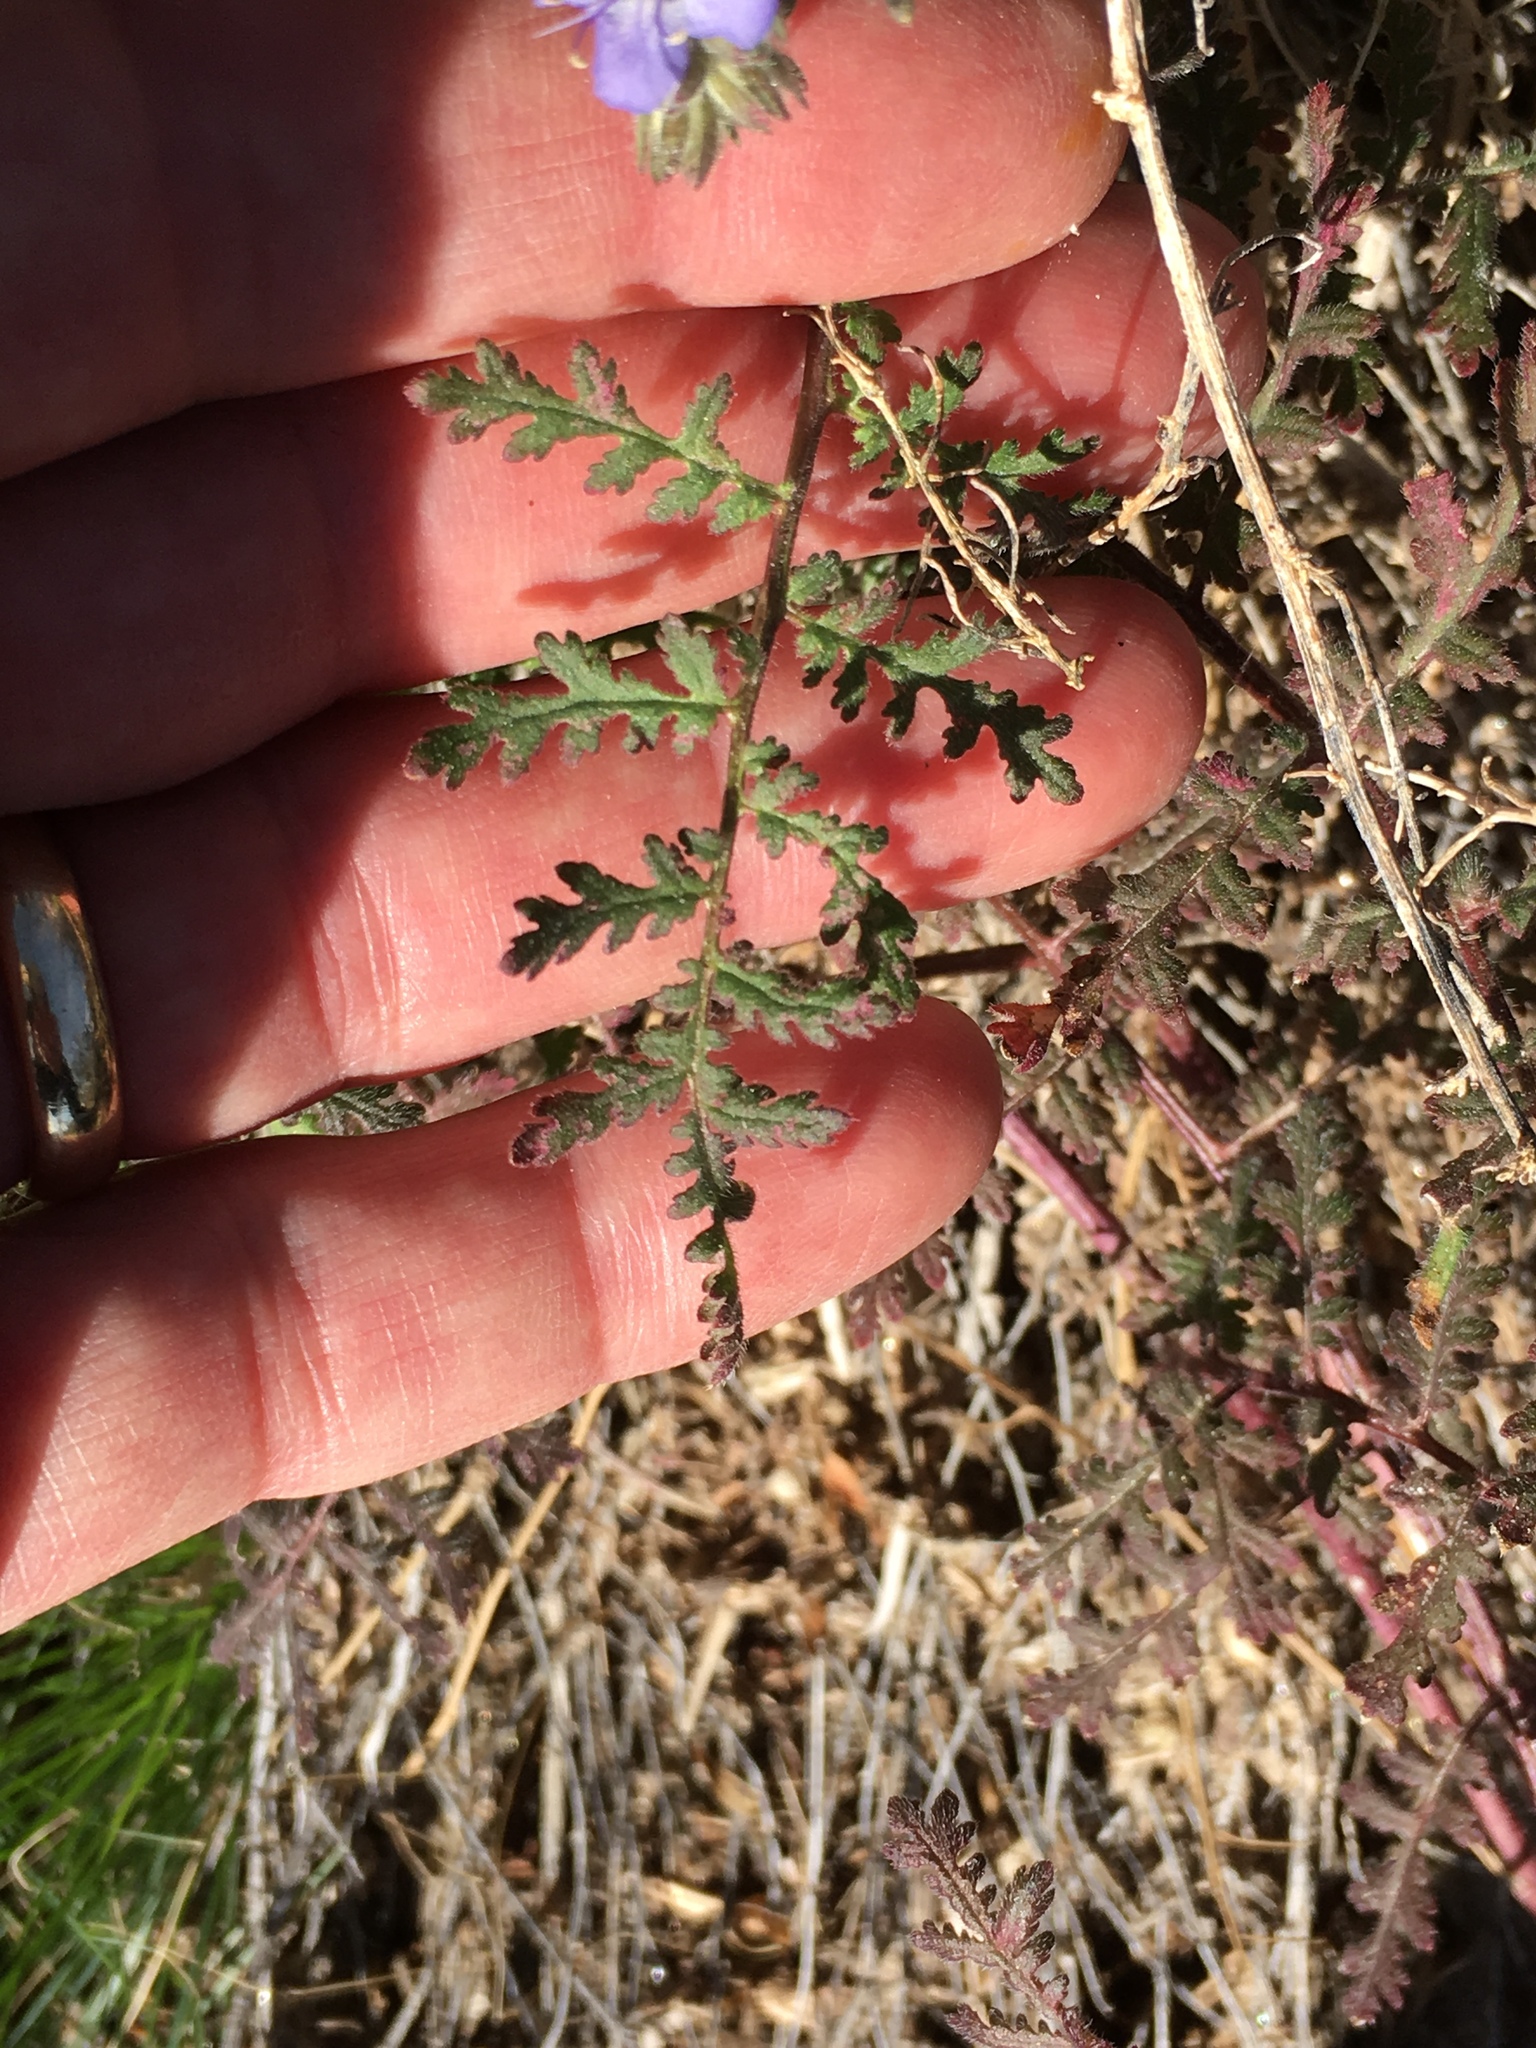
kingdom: Plantae
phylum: Tracheophyta
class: Magnoliopsida
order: Boraginales
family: Hydrophyllaceae
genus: Phacelia
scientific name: Phacelia distans
